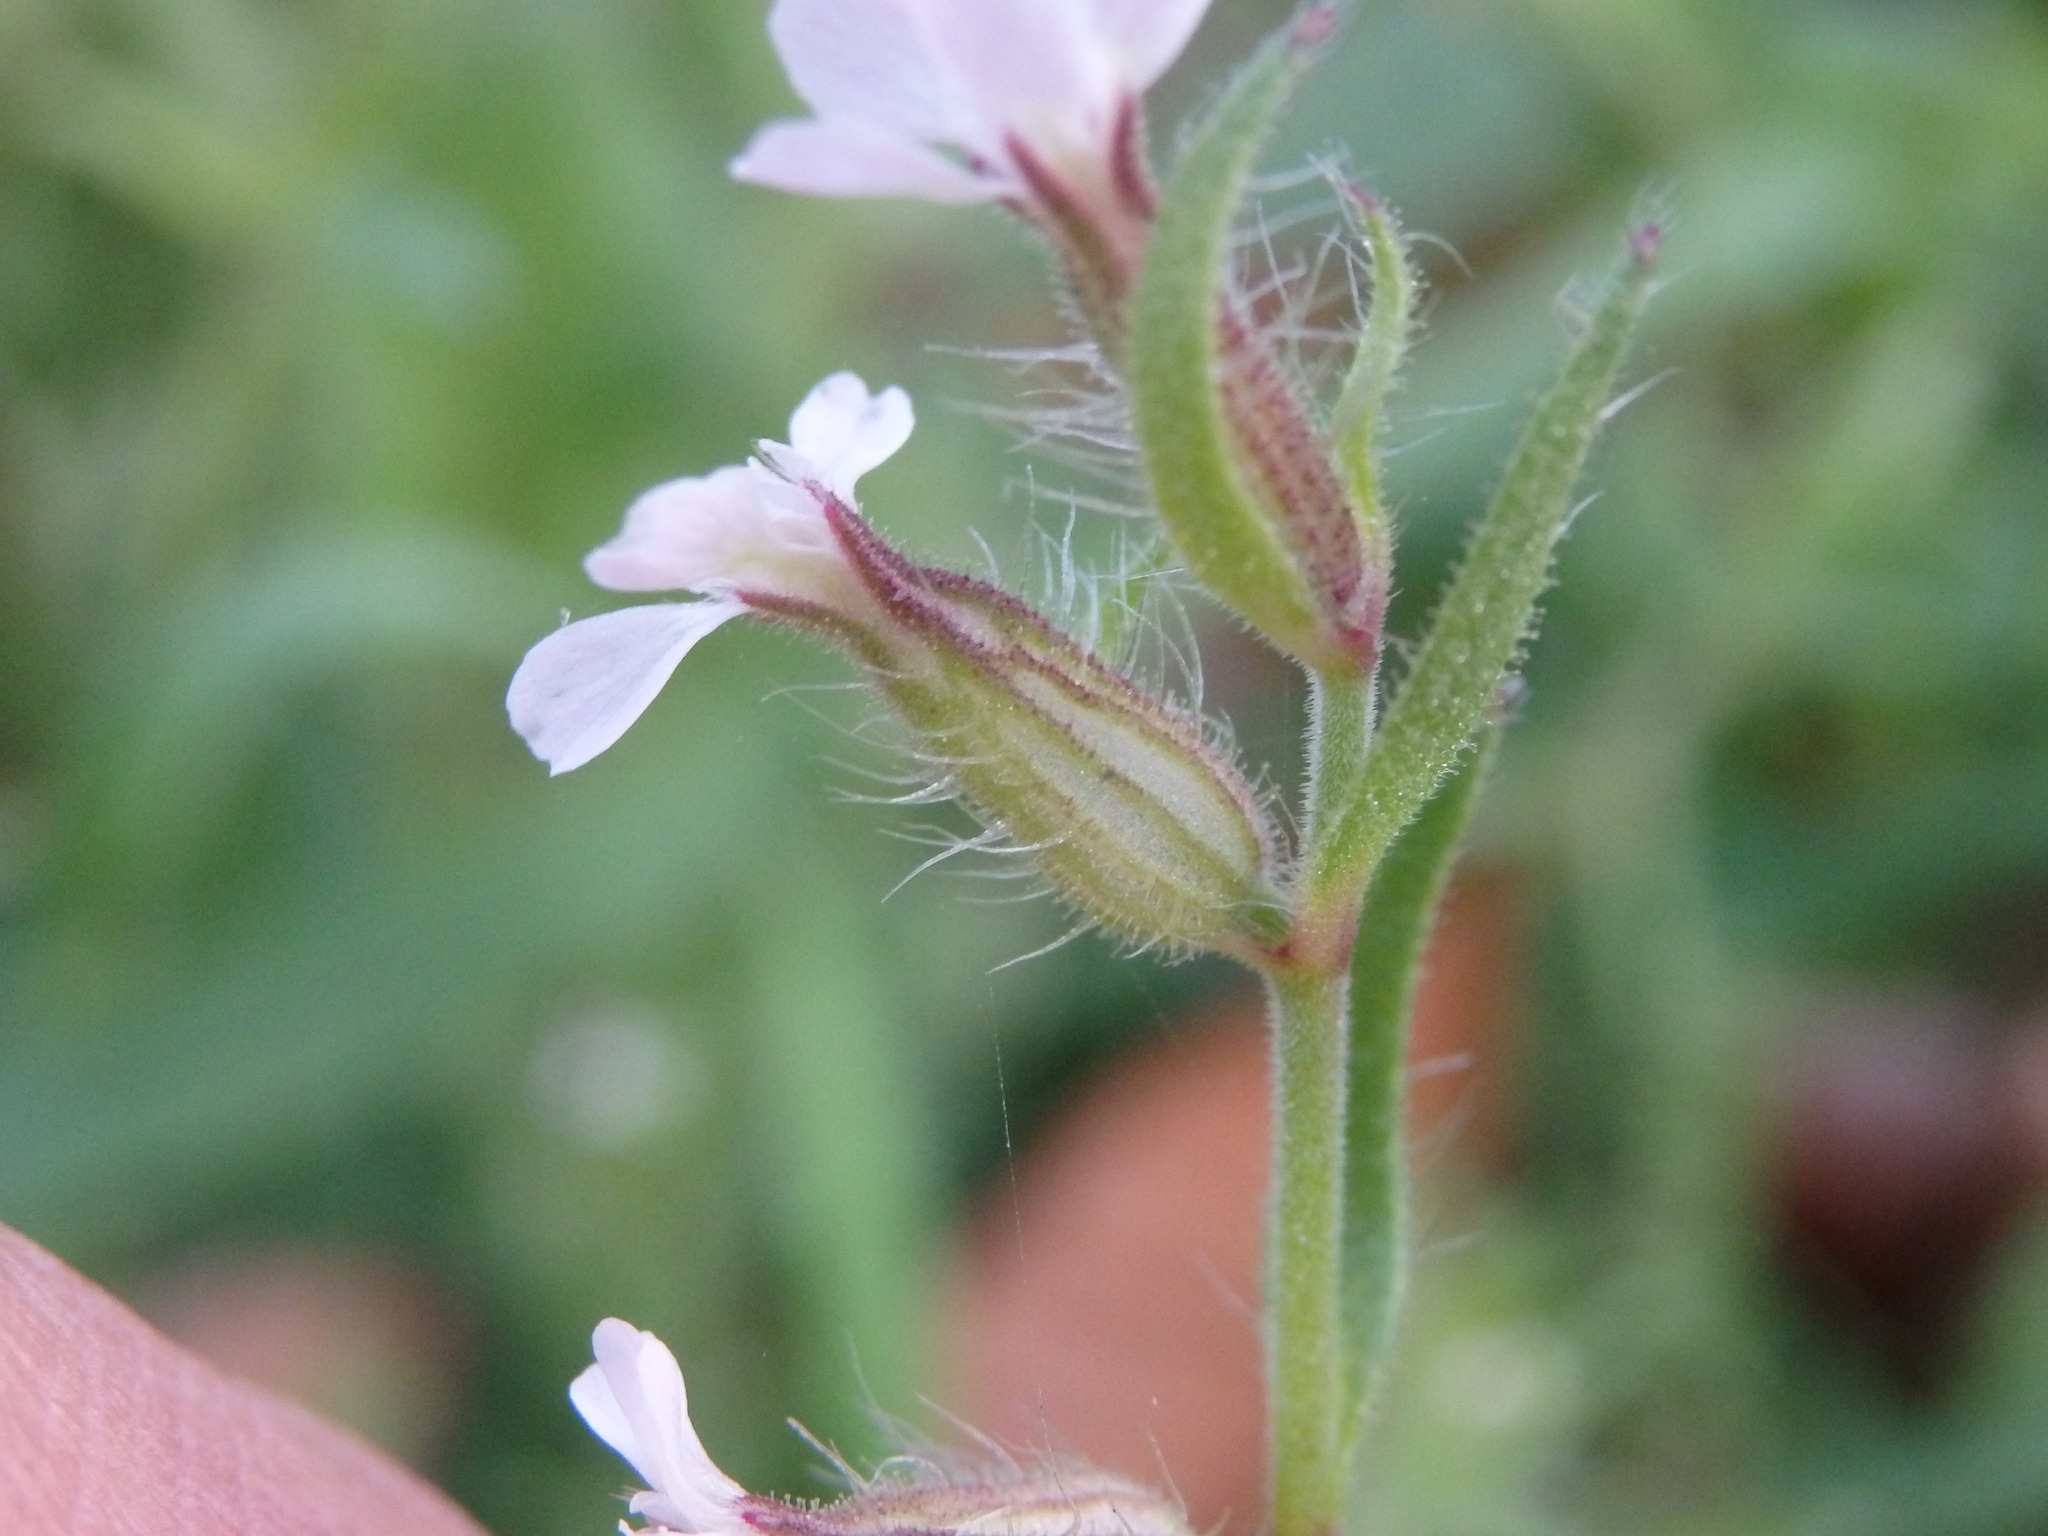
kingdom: Plantae
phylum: Tracheophyta
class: Magnoliopsida
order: Caryophyllales
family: Caryophyllaceae
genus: Silene
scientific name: Silene gallica
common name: Small-flowered catchfly
